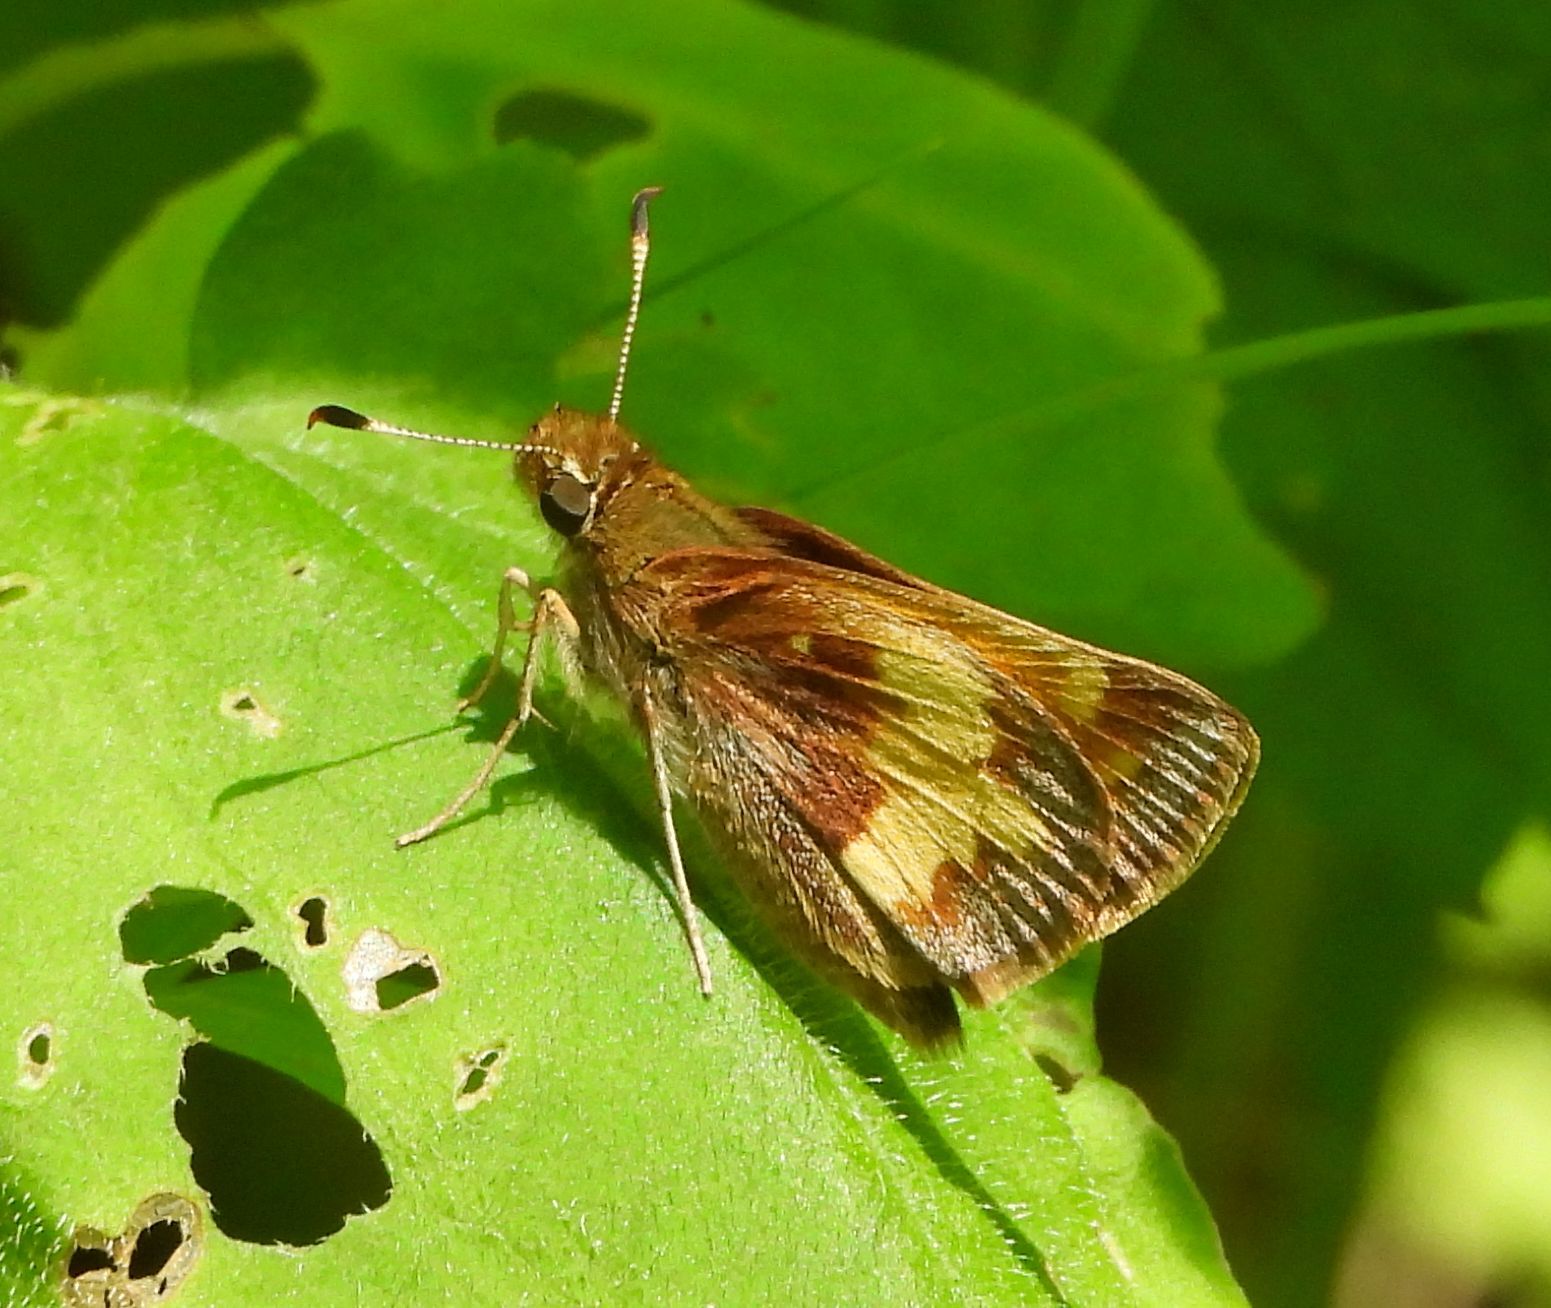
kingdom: Animalia
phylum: Arthropoda
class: Insecta
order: Lepidoptera
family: Hesperiidae
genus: Lon
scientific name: Lon hobomok
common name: Hobomok skipper
